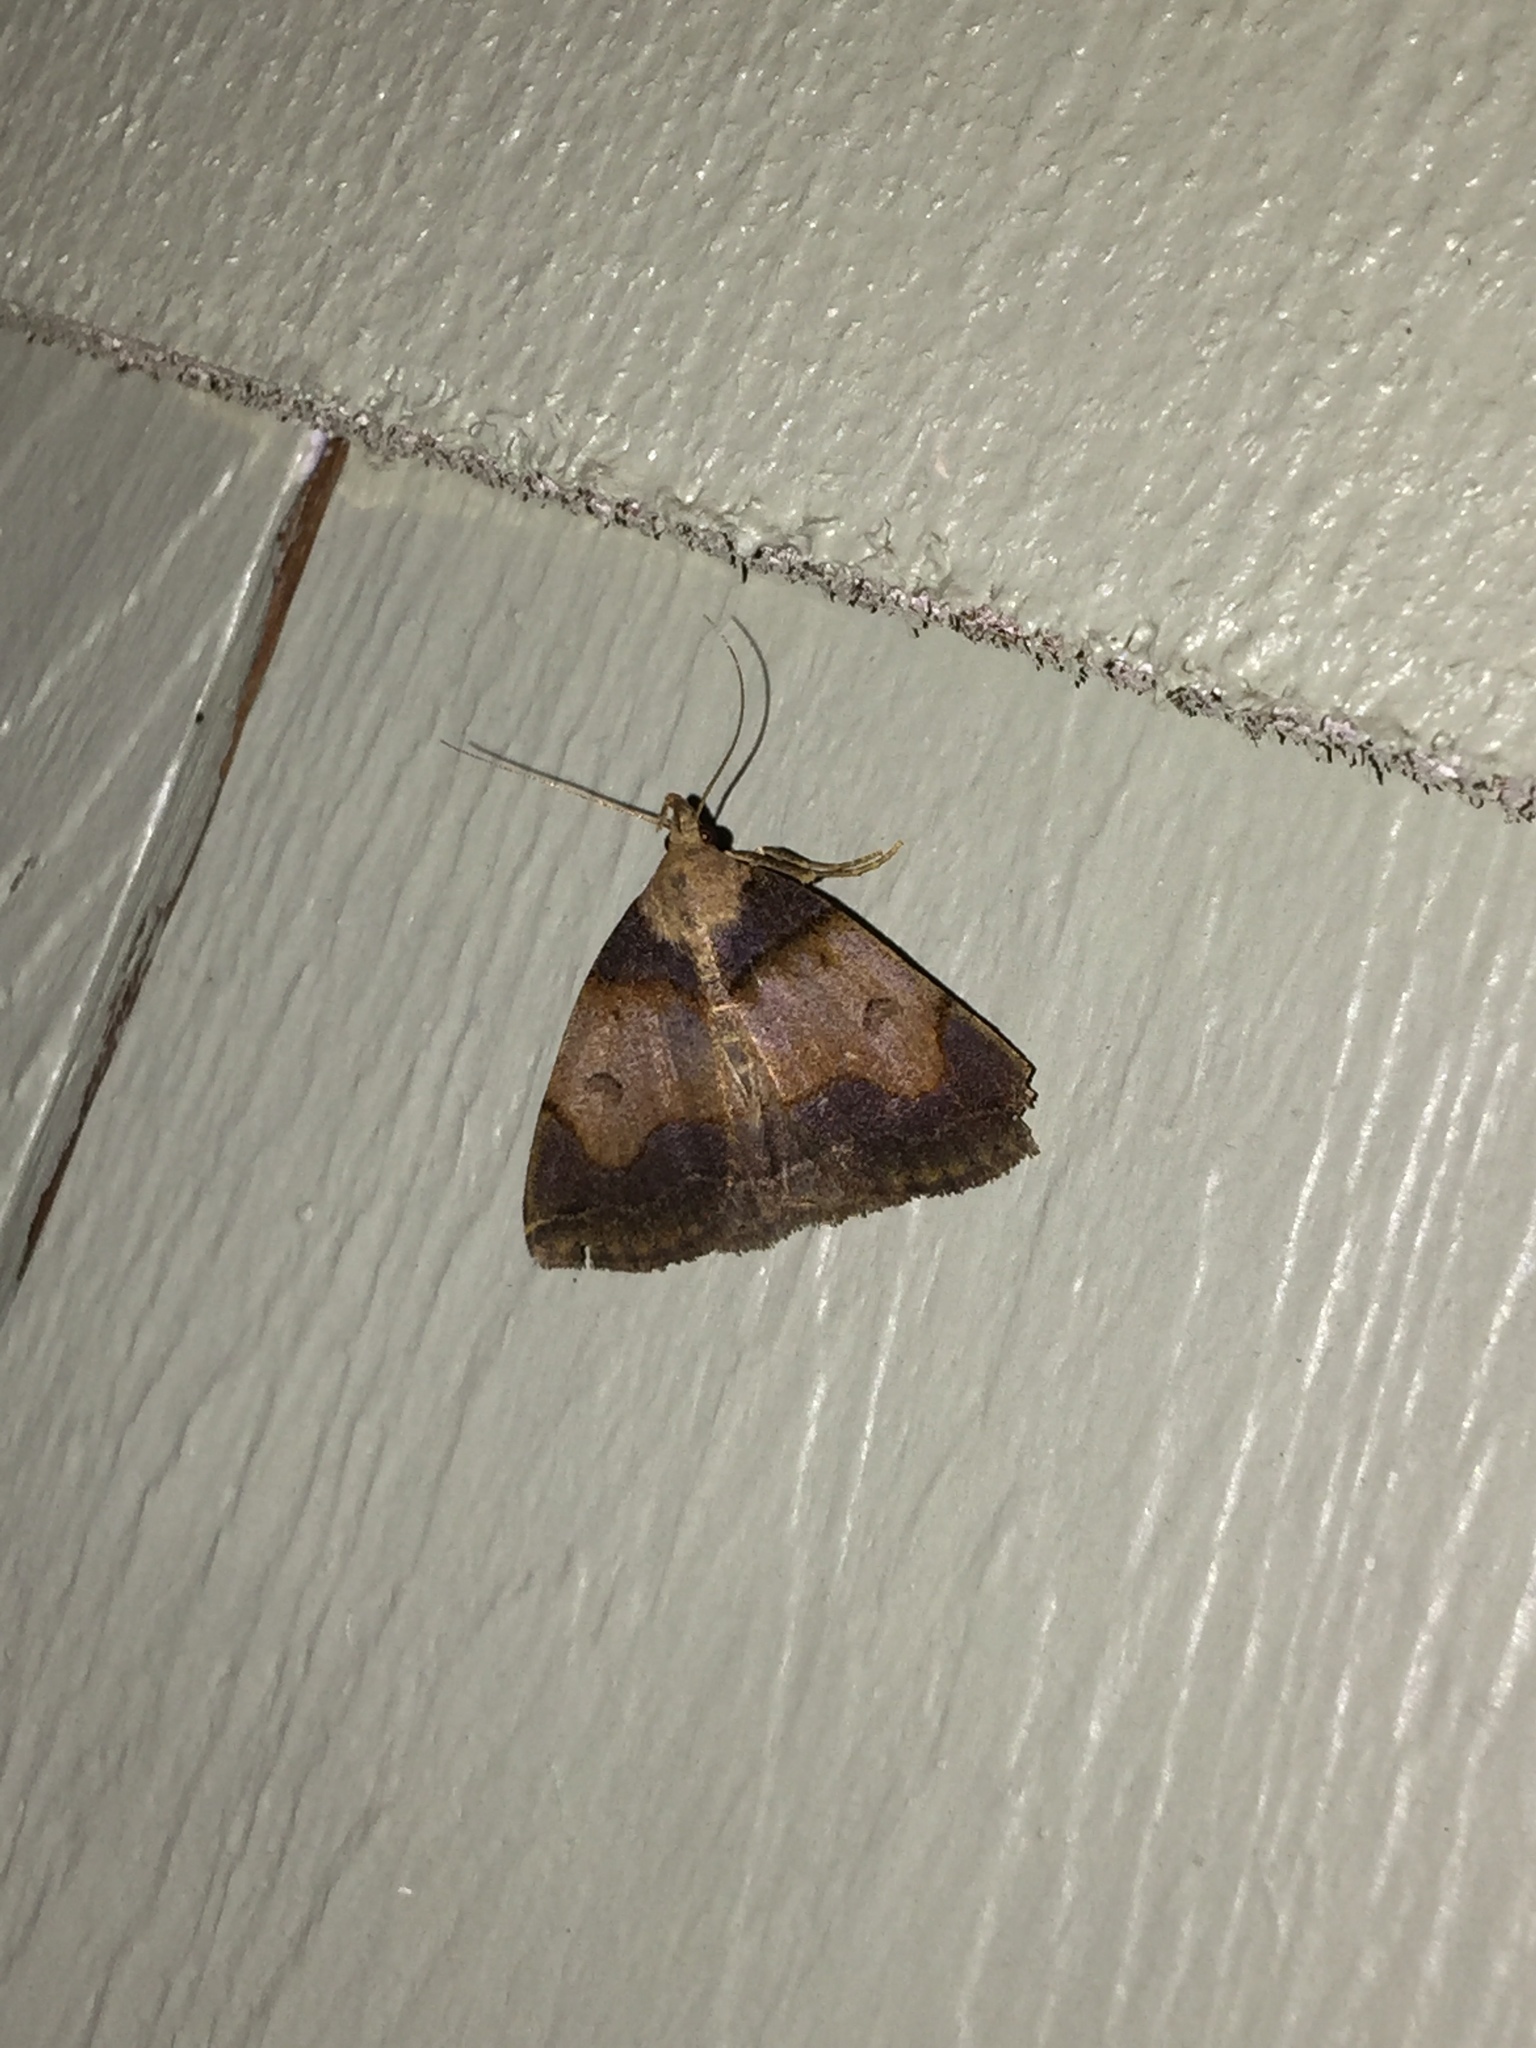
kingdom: Animalia
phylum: Arthropoda
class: Insecta
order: Lepidoptera
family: Erebidae
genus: Zanclognatha
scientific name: Zanclognatha laevigata
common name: Variable fan-foot
